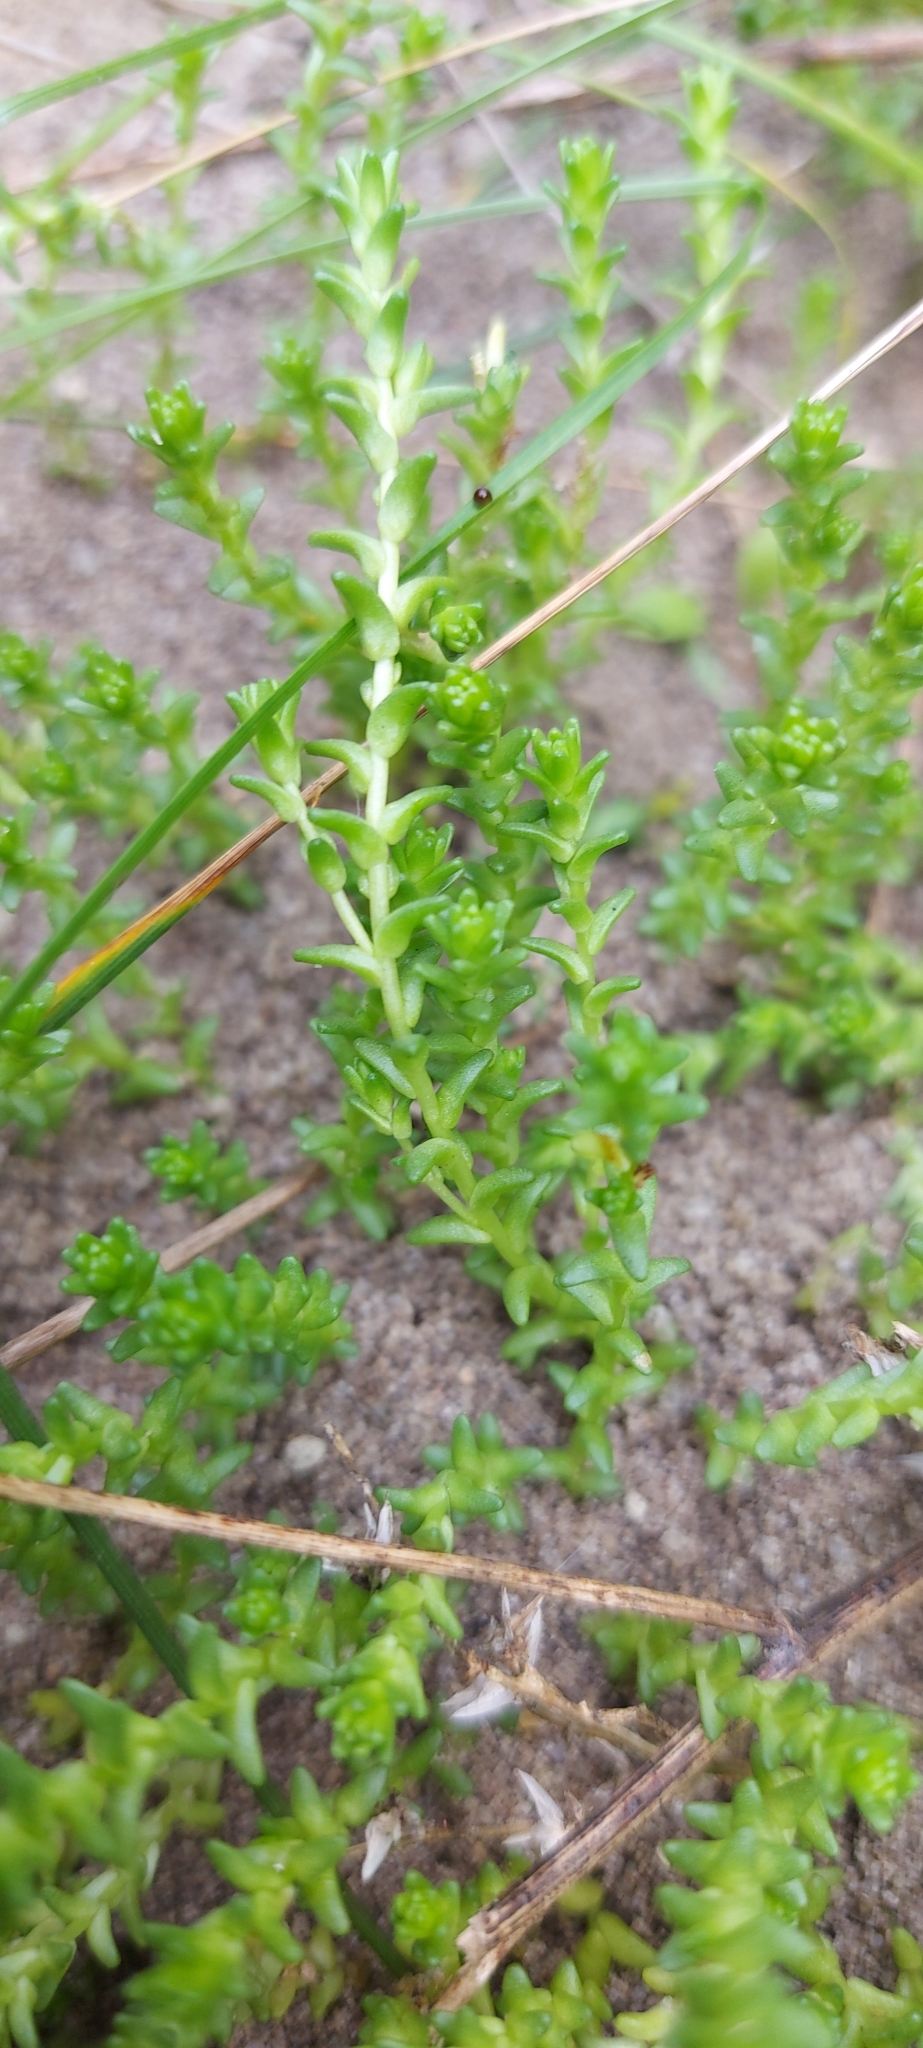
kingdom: Plantae
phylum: Tracheophyta
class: Magnoliopsida
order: Saxifragales
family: Crassulaceae
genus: Sedum
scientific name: Sedum acre
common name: Biting stonecrop
